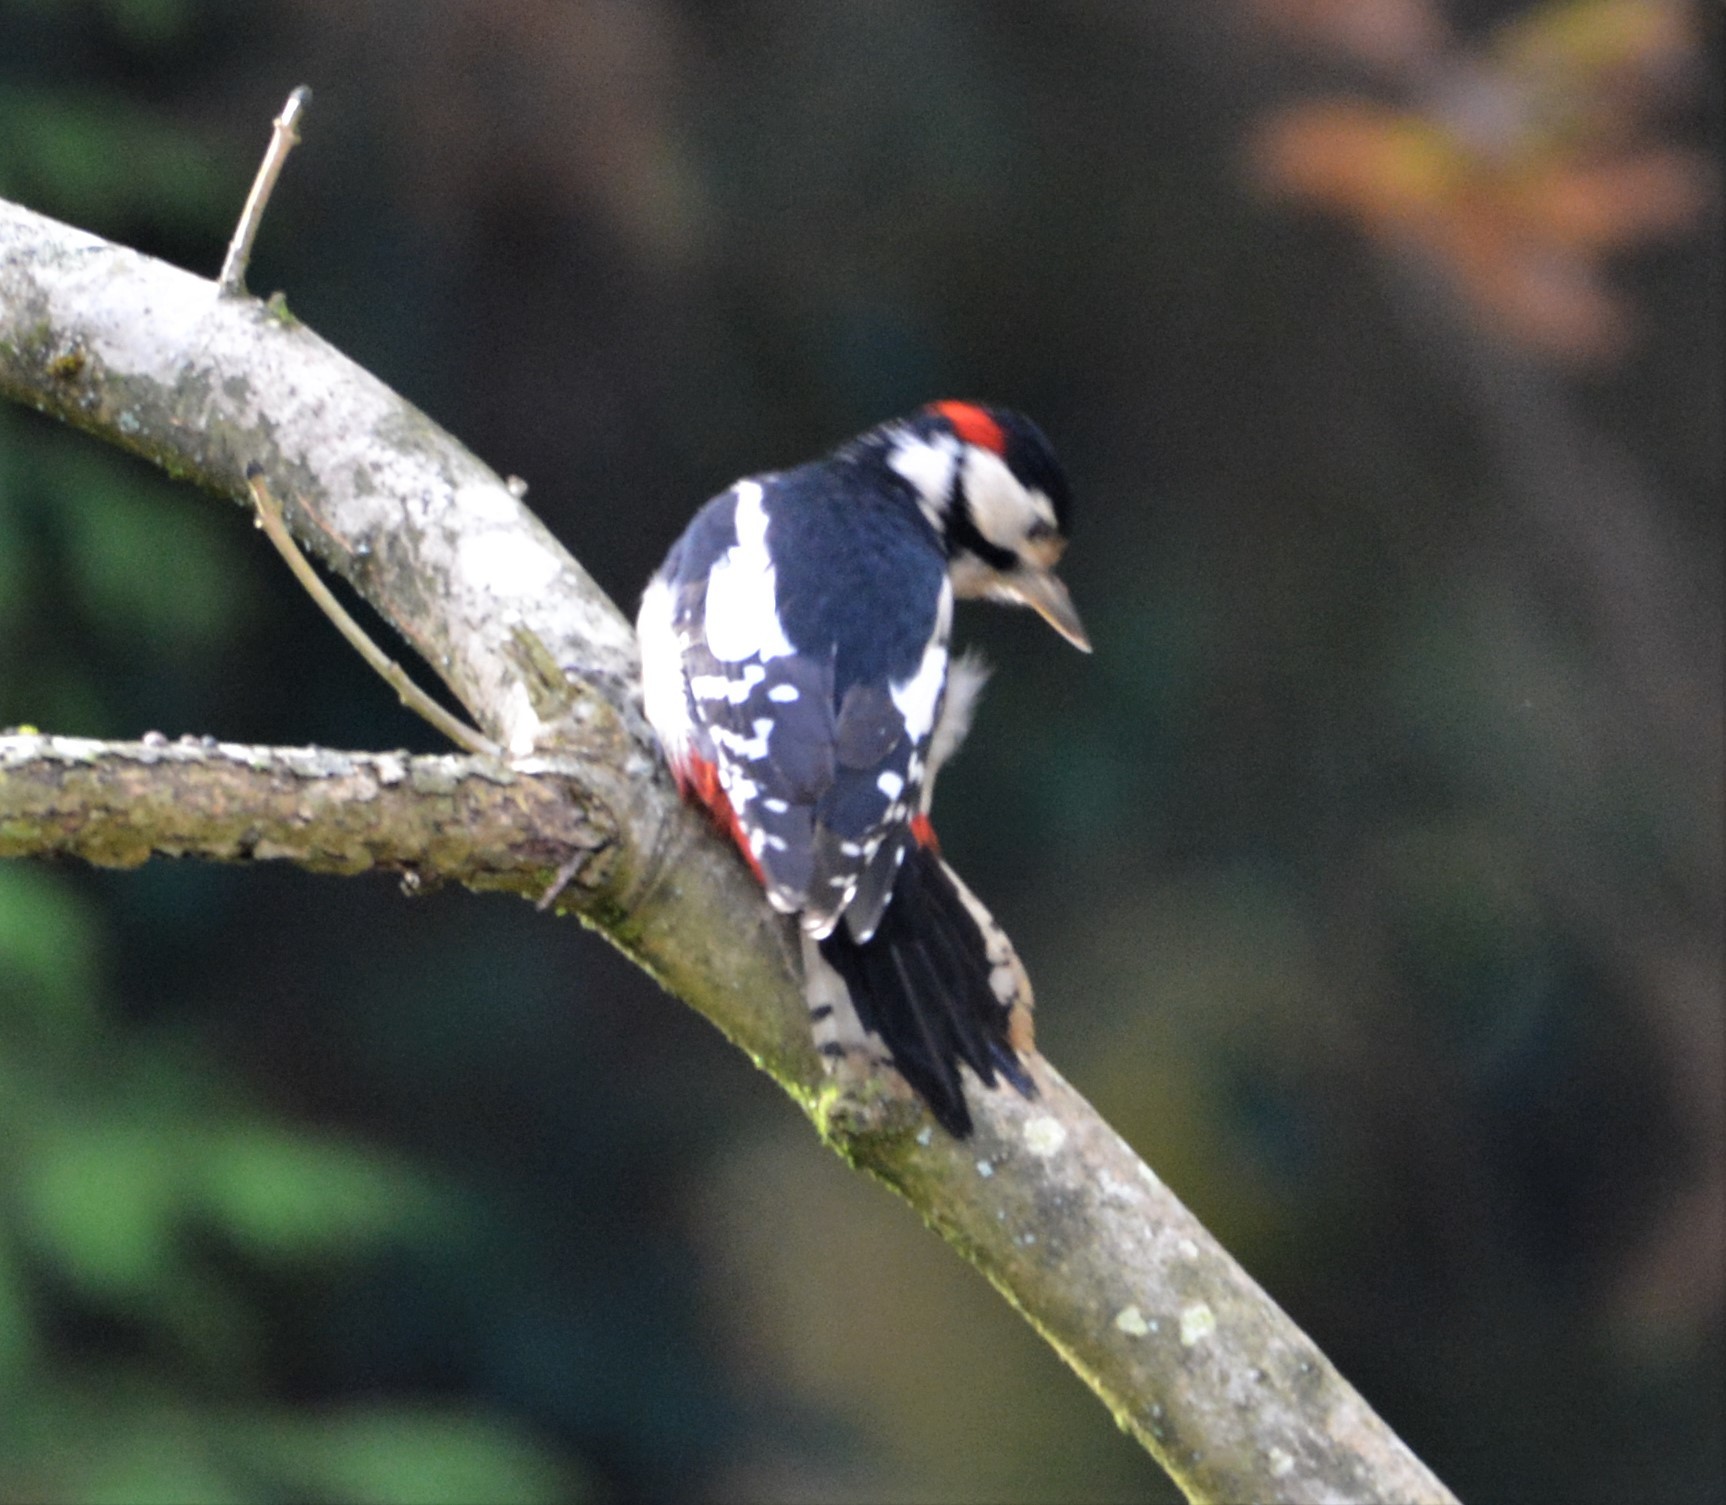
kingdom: Animalia
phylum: Chordata
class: Aves
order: Piciformes
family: Picidae
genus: Dendrocopos
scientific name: Dendrocopos major
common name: Great spotted woodpecker
